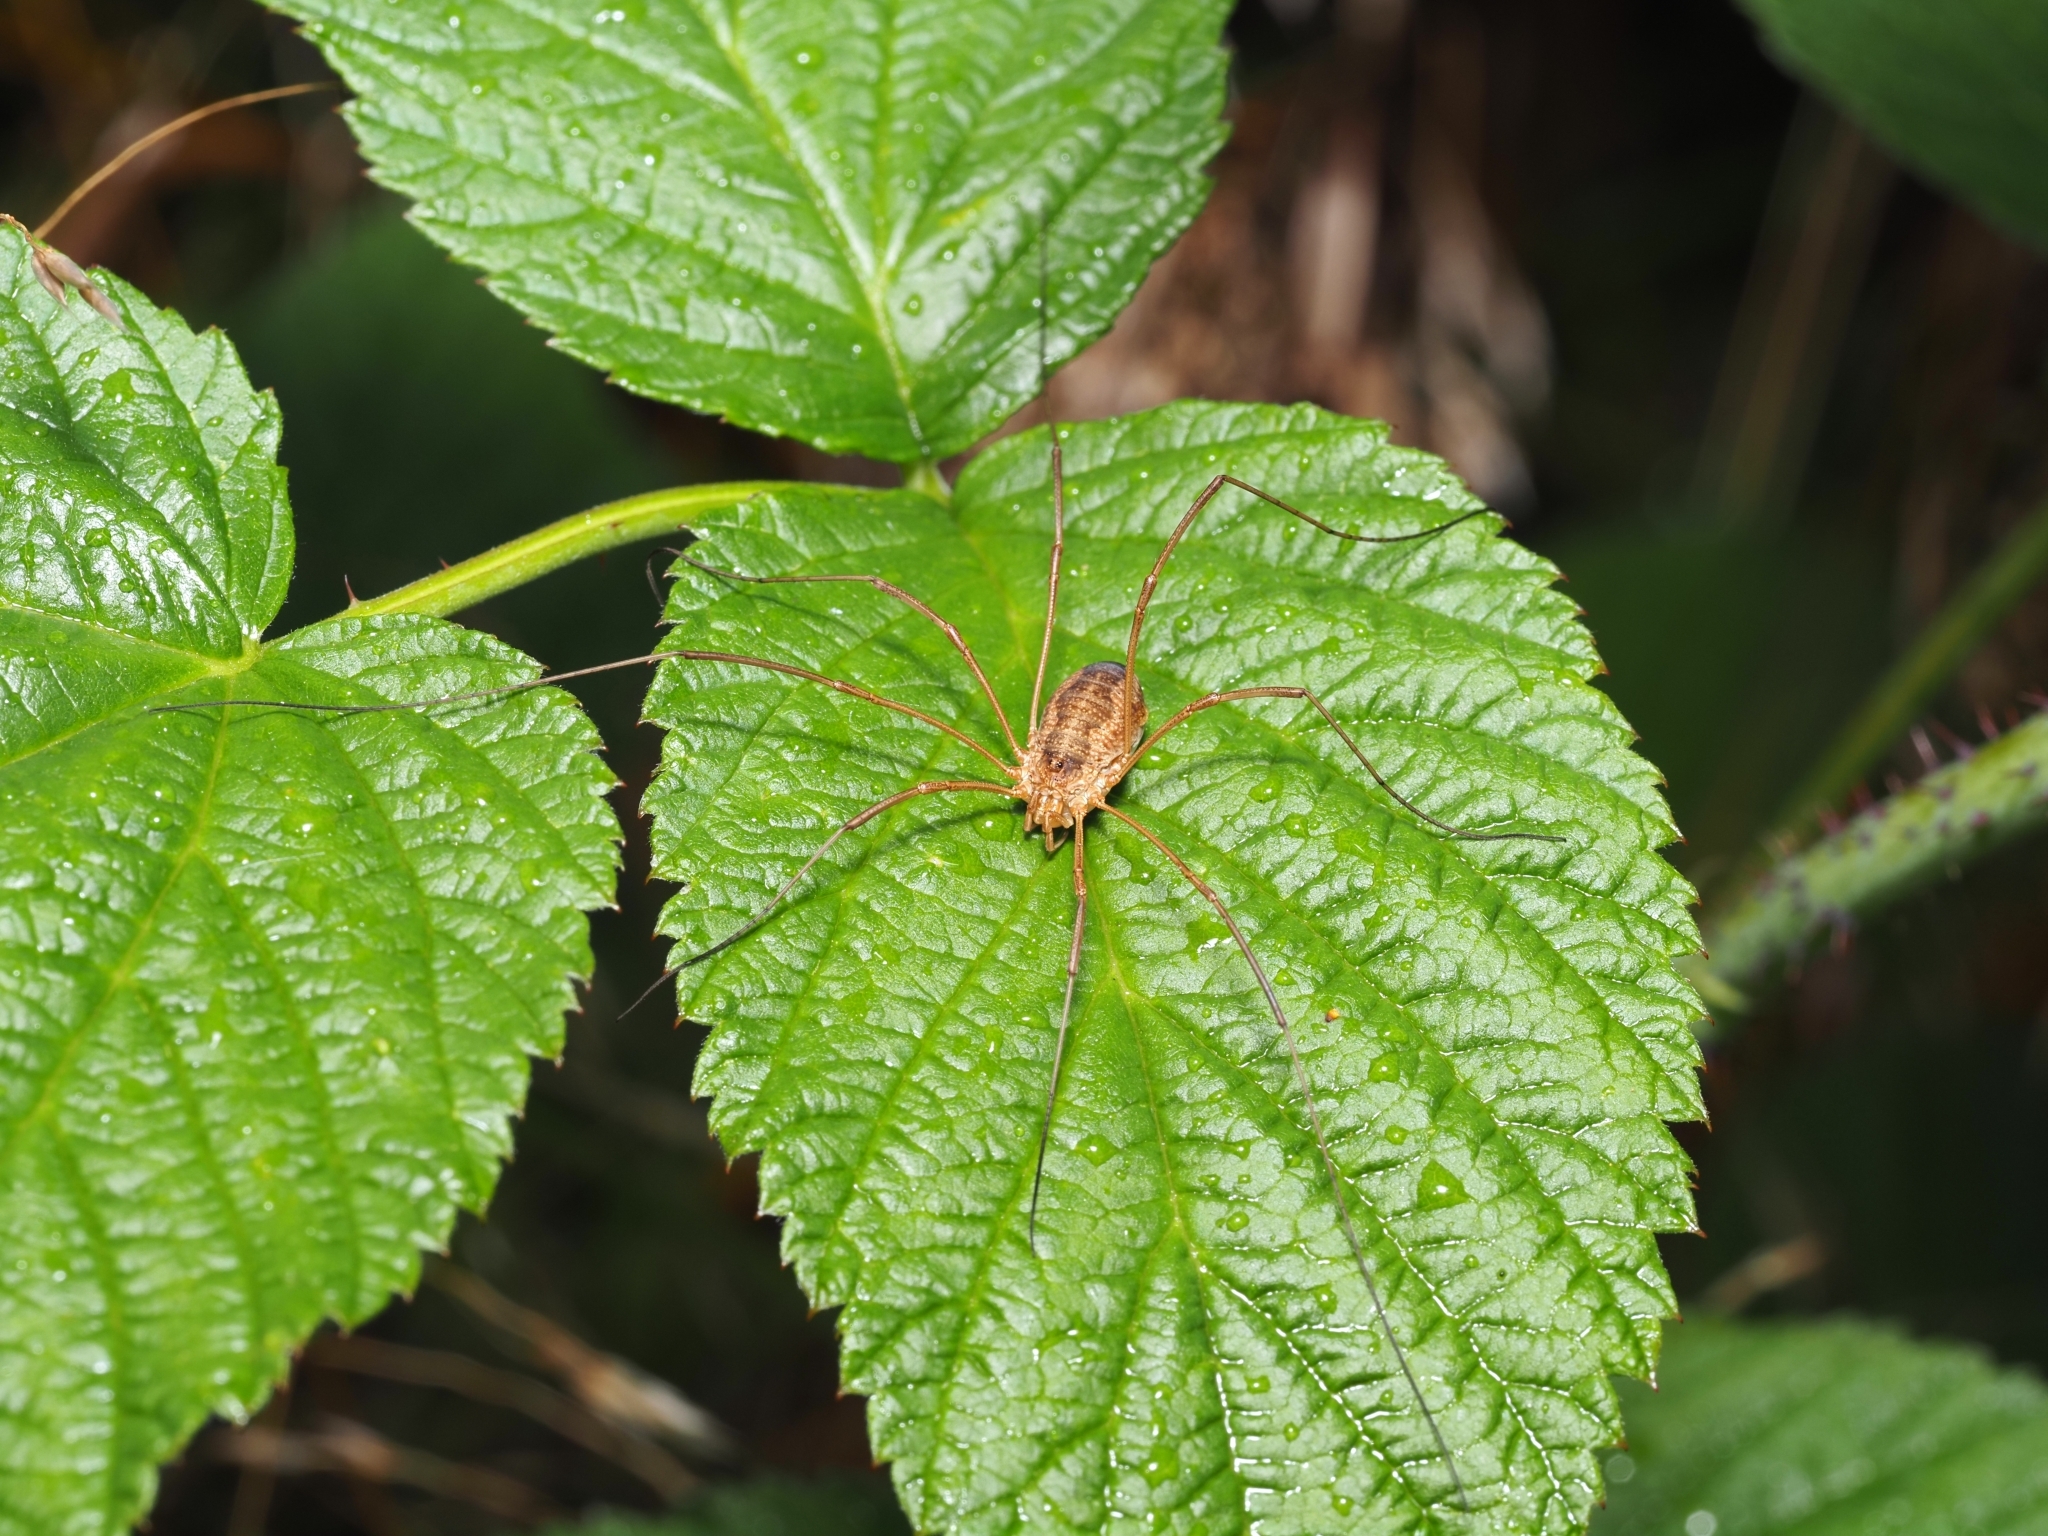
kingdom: Animalia
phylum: Arthropoda
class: Arachnida
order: Opiliones
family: Phalangiidae
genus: Phalangium
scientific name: Phalangium opilio
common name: Daddy longleg
